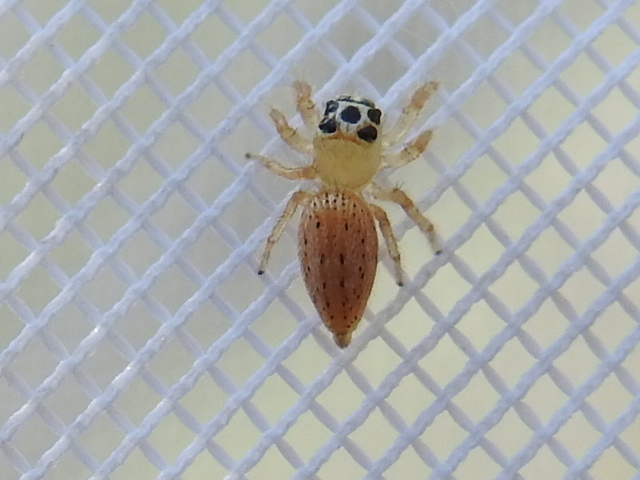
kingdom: Animalia
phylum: Arthropoda
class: Arachnida
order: Araneae
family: Salticidae
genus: Colonus
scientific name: Colonus puerperus
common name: Jumping spiders
